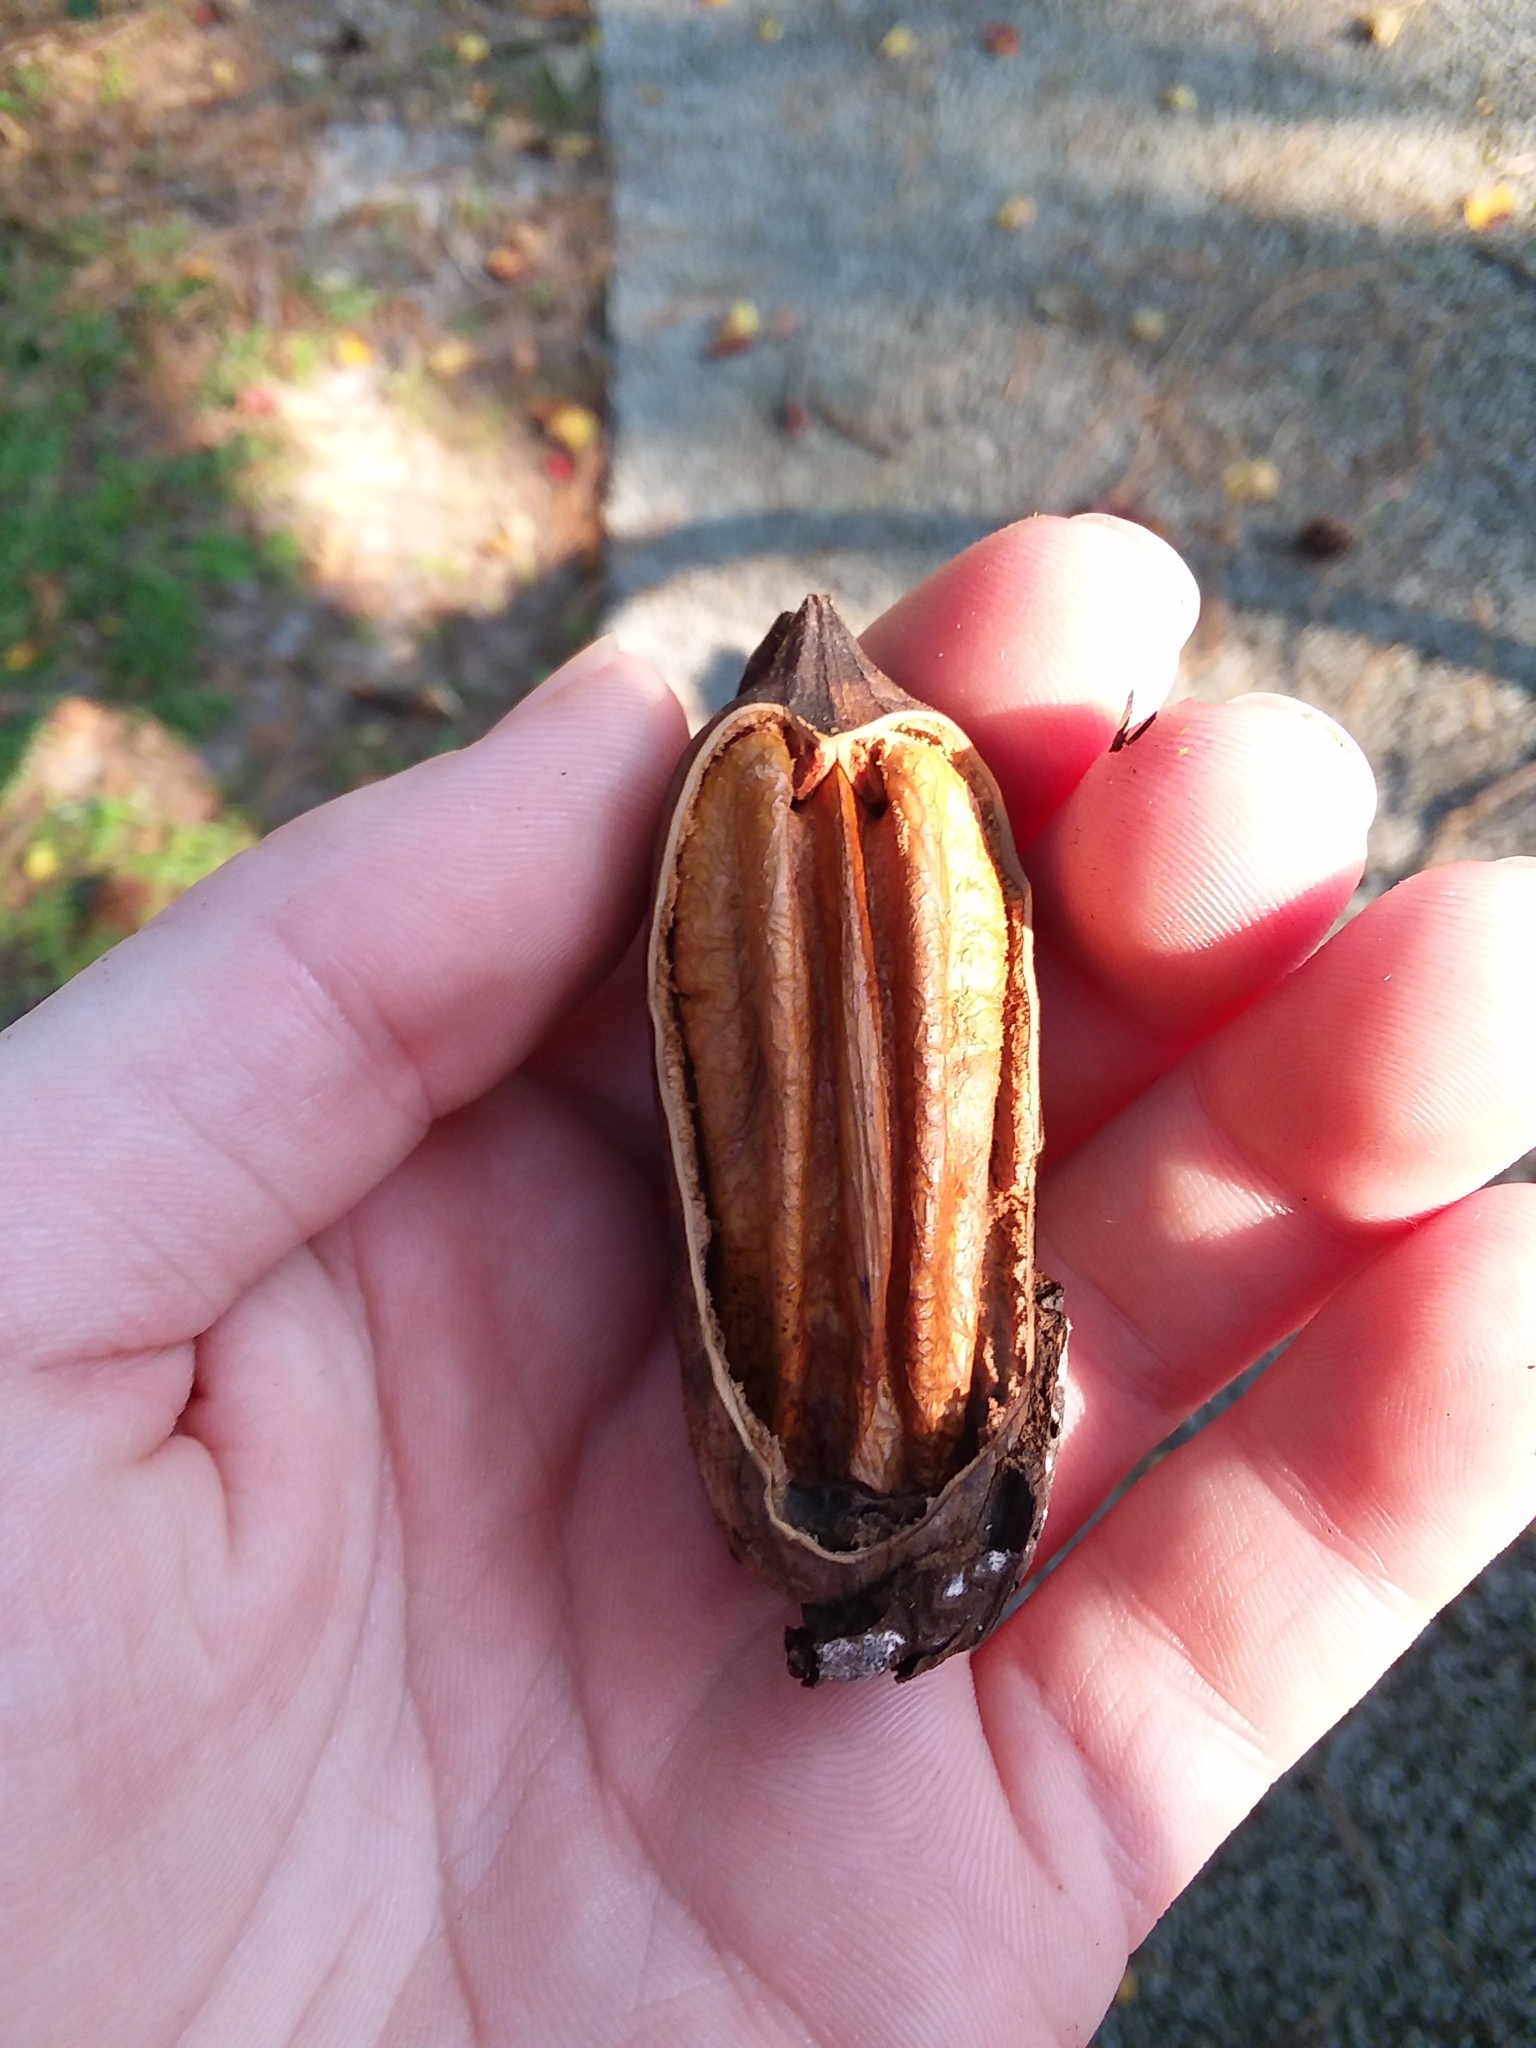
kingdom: Plantae
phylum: Tracheophyta
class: Magnoliopsida
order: Fagales
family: Juglandaceae
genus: Carya
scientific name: Carya illinoinensis
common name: Pecan
